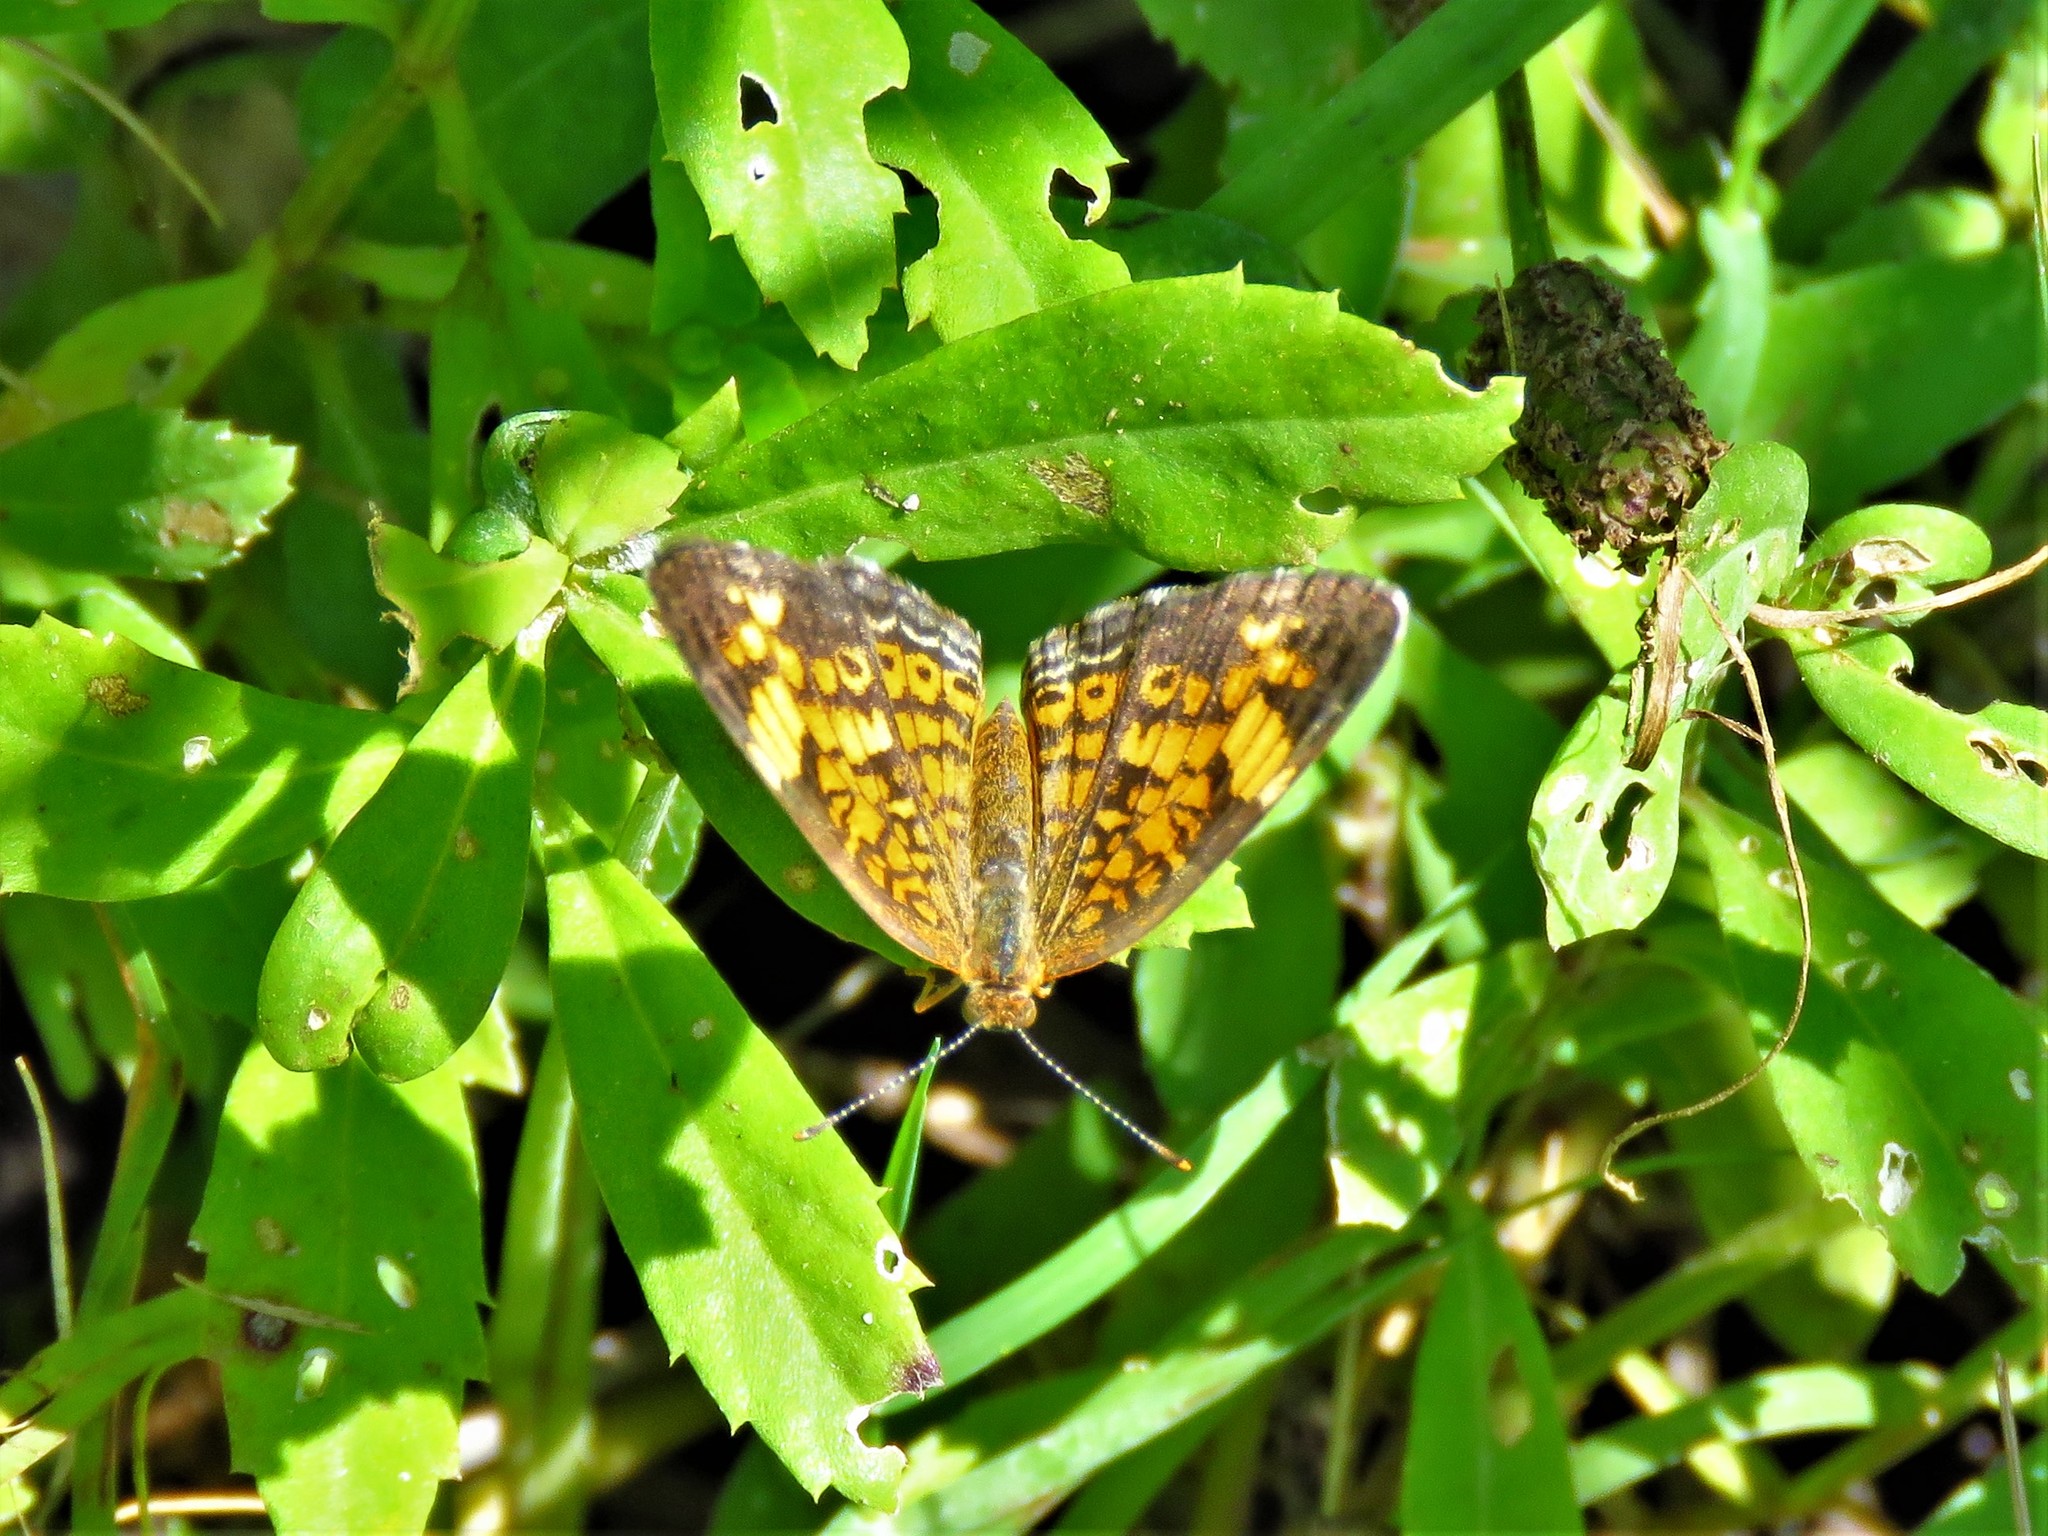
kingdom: Animalia
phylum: Arthropoda
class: Insecta
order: Lepidoptera
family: Nymphalidae
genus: Phyciodes
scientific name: Phyciodes tharos
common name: Pearl crescent
